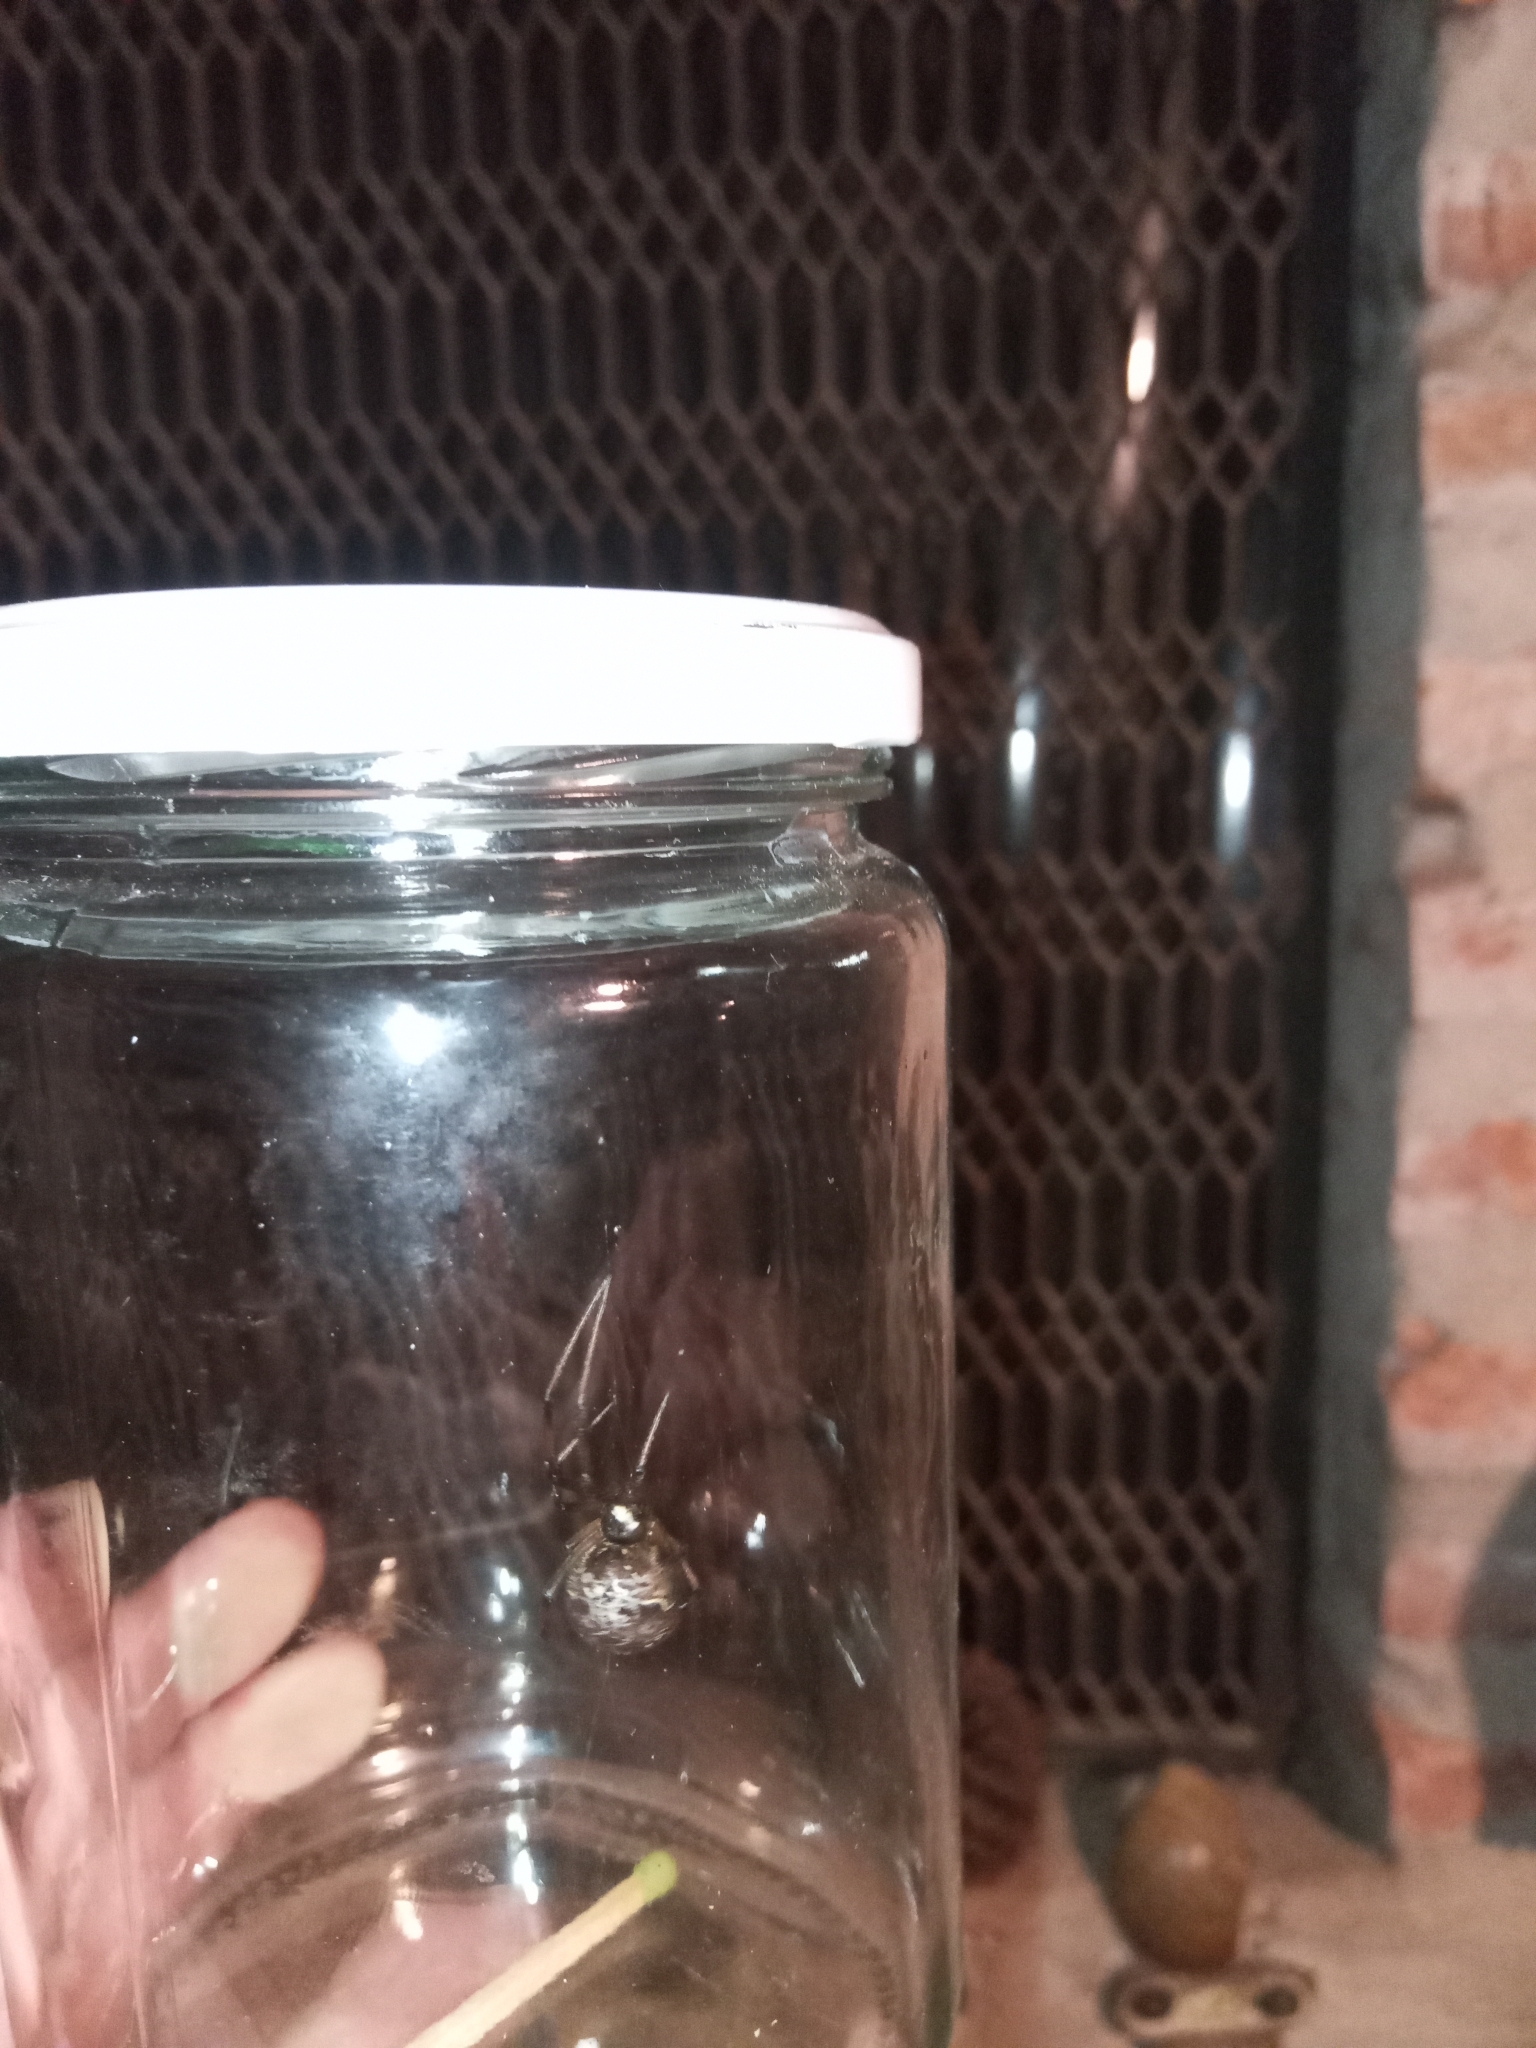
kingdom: Animalia
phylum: Arthropoda
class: Arachnida
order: Araneae
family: Theridiidae
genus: Latrodectus
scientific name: Latrodectus geometricus
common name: Brown widow spider
